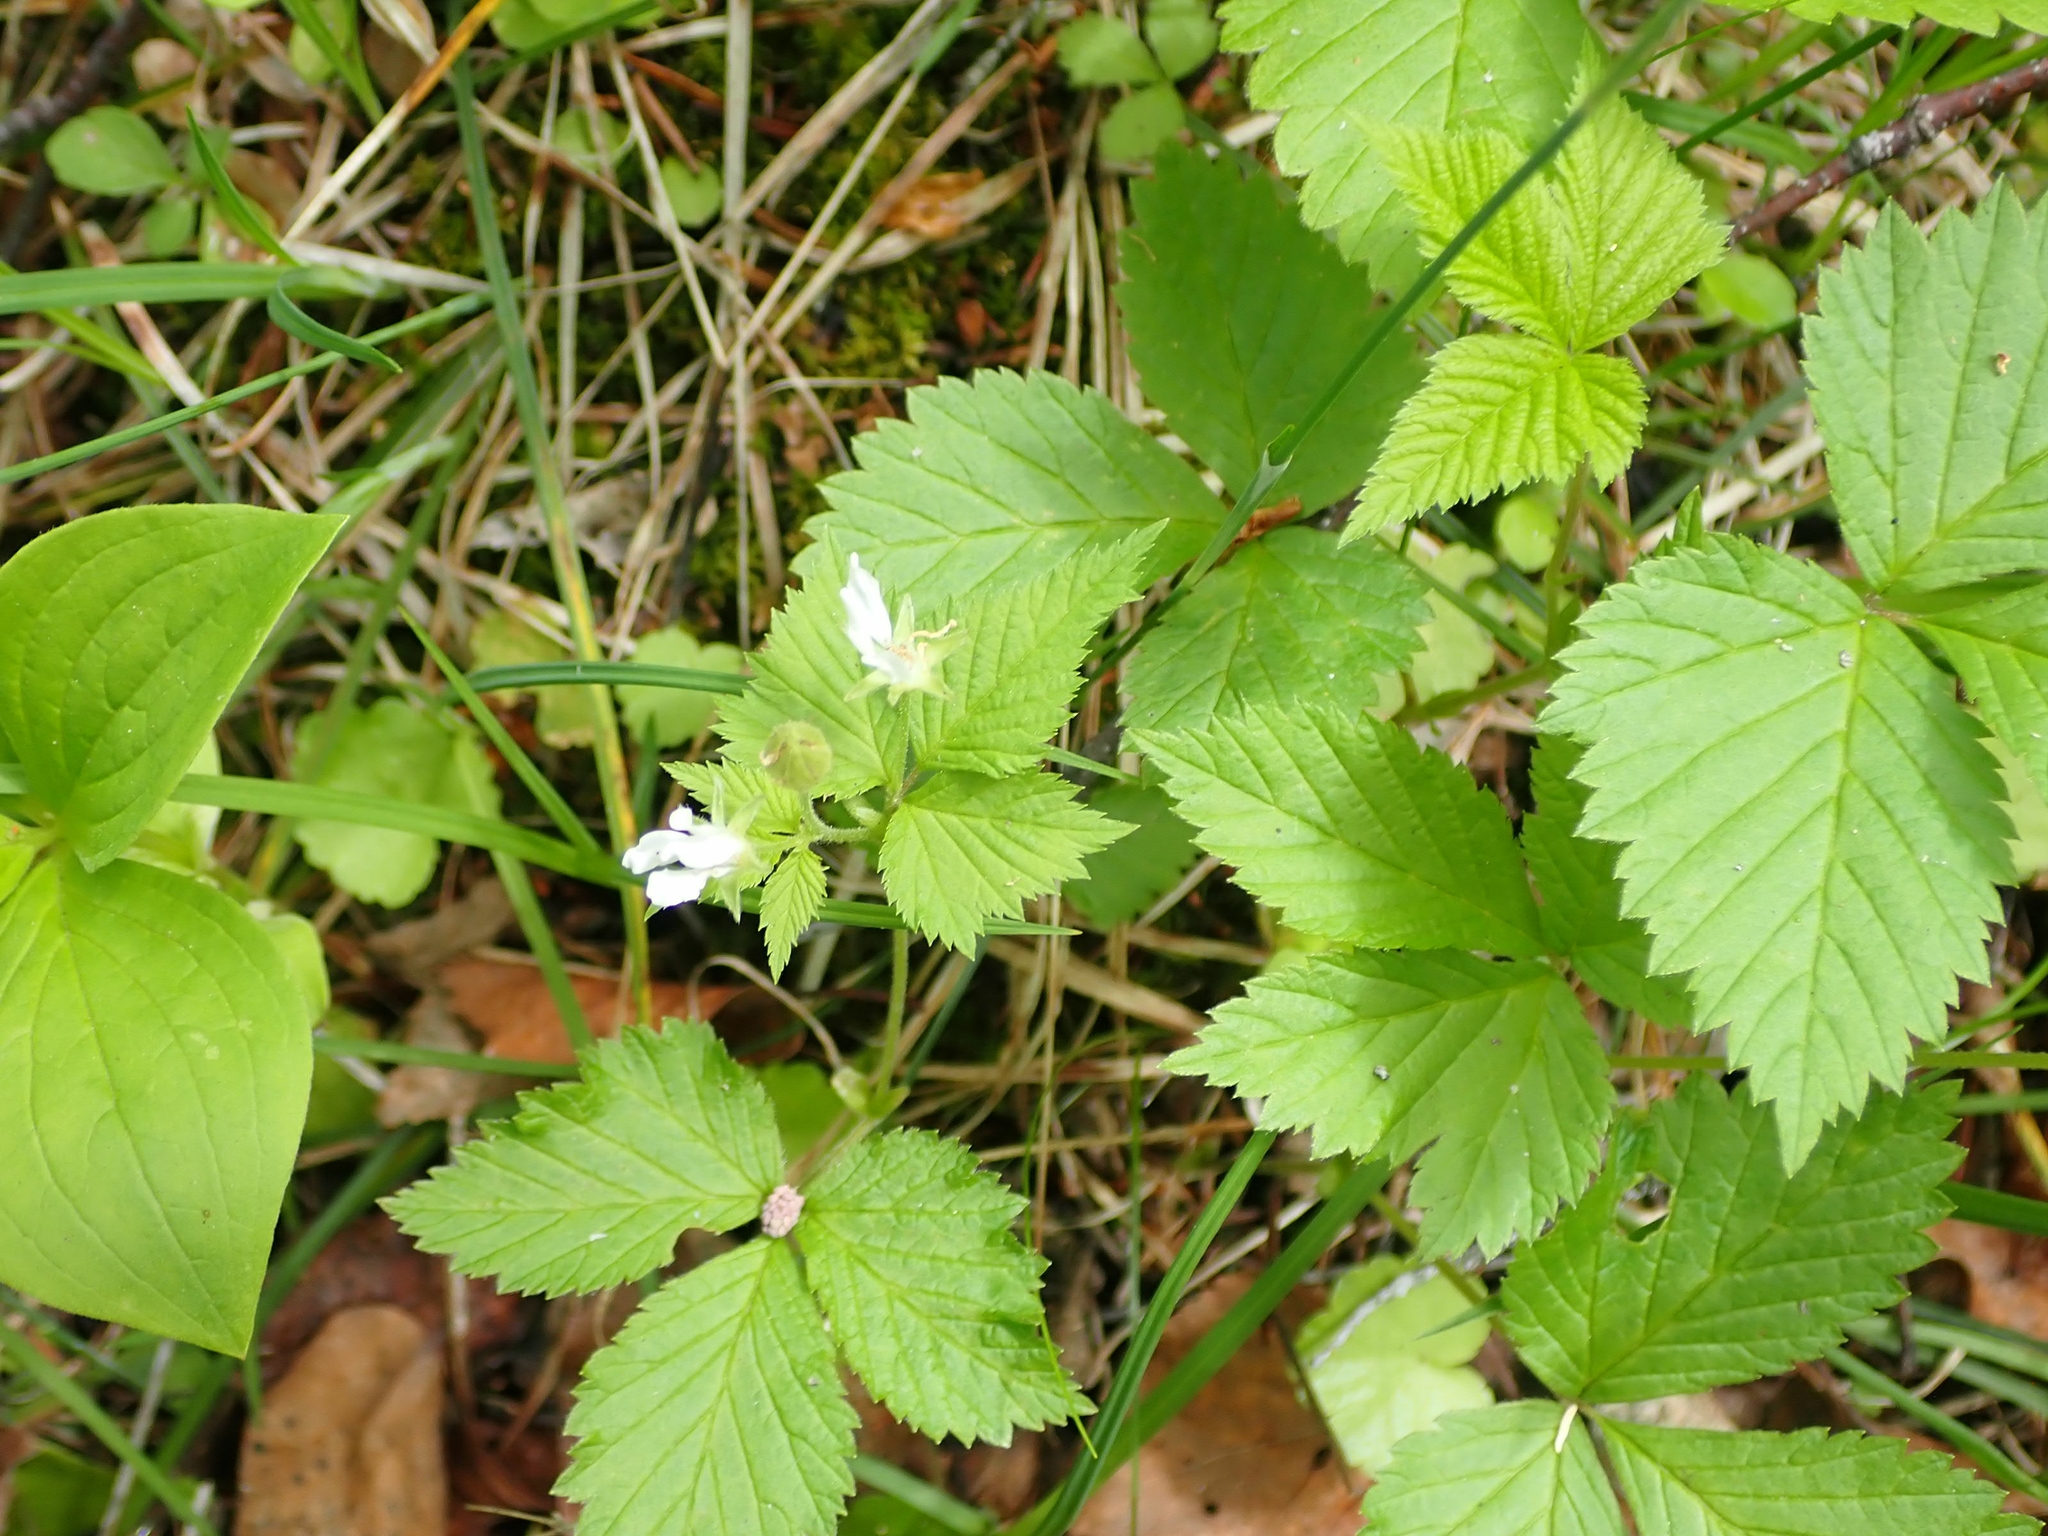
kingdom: Plantae
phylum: Tracheophyta
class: Magnoliopsida
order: Rosales
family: Rosaceae
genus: Rubus
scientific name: Rubus pubescens
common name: Dwarf raspberry
